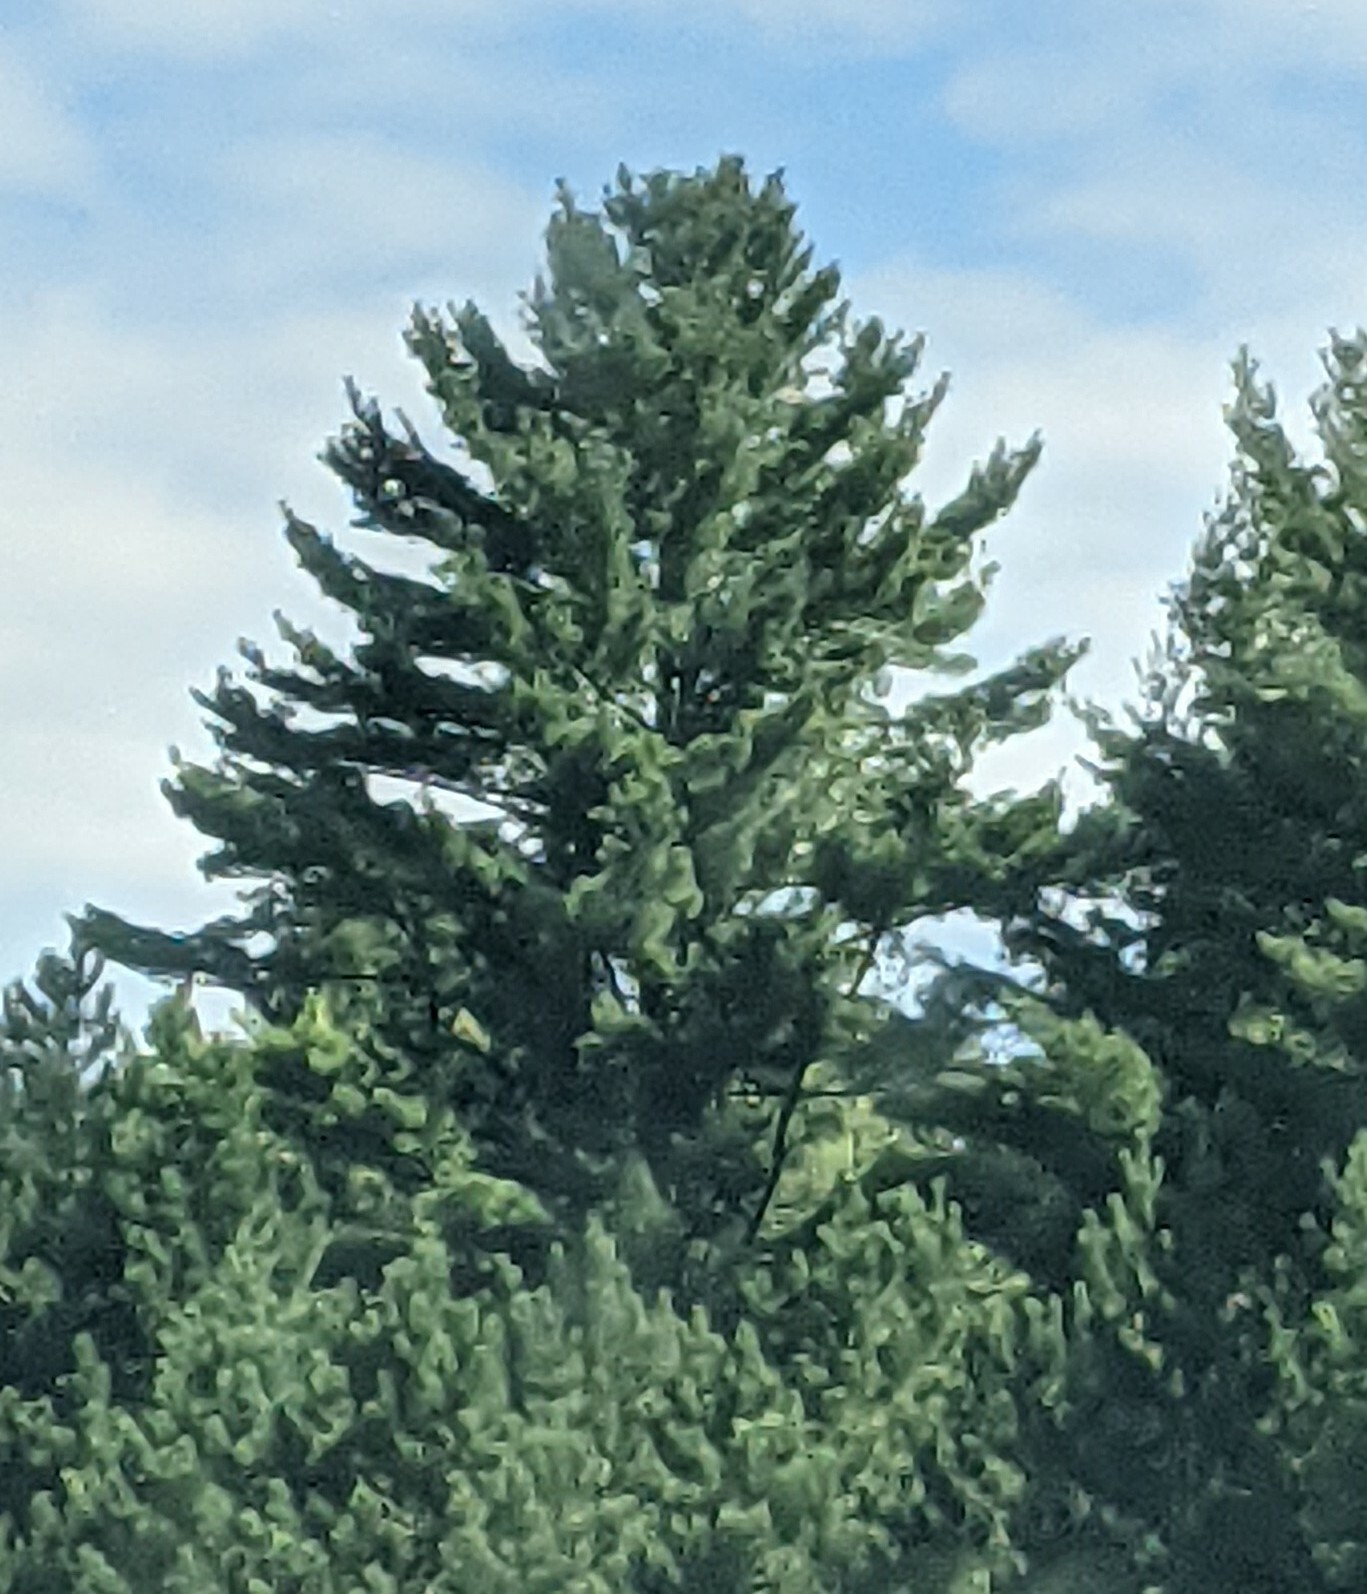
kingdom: Plantae
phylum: Tracheophyta
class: Pinopsida
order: Pinales
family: Pinaceae
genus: Pinus
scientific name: Pinus strobus
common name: Weymouth pine
